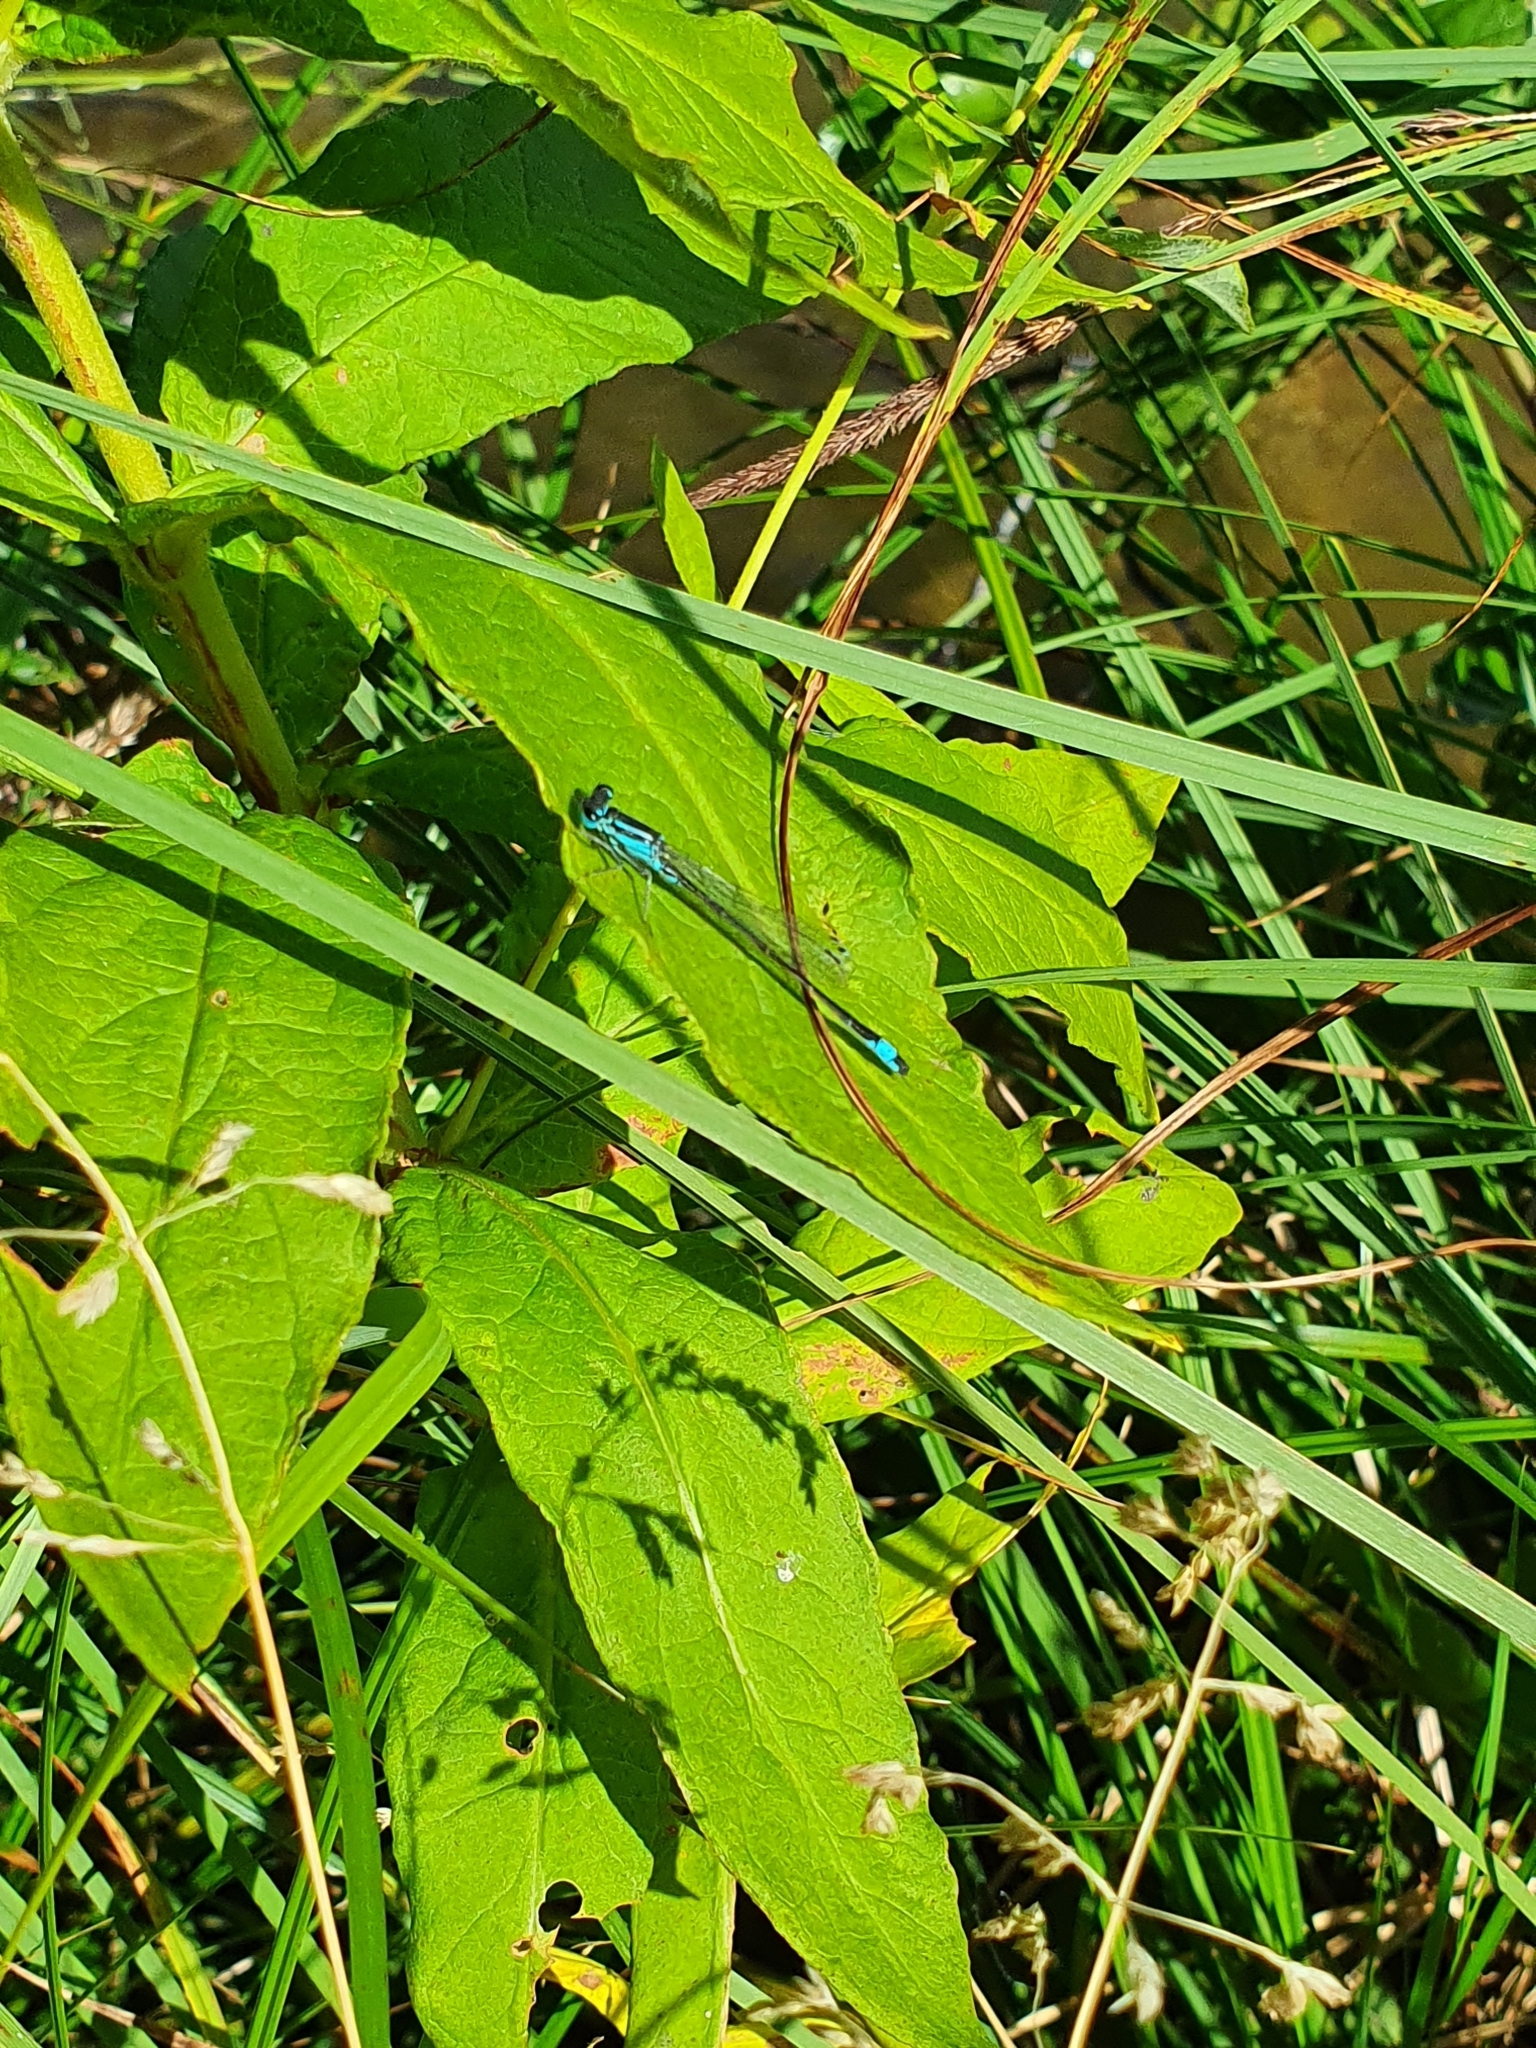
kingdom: Animalia
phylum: Arthropoda
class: Insecta
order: Odonata
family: Coenagrionidae
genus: Ischnura
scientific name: Ischnura elegans
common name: Blue-tailed damselfly
